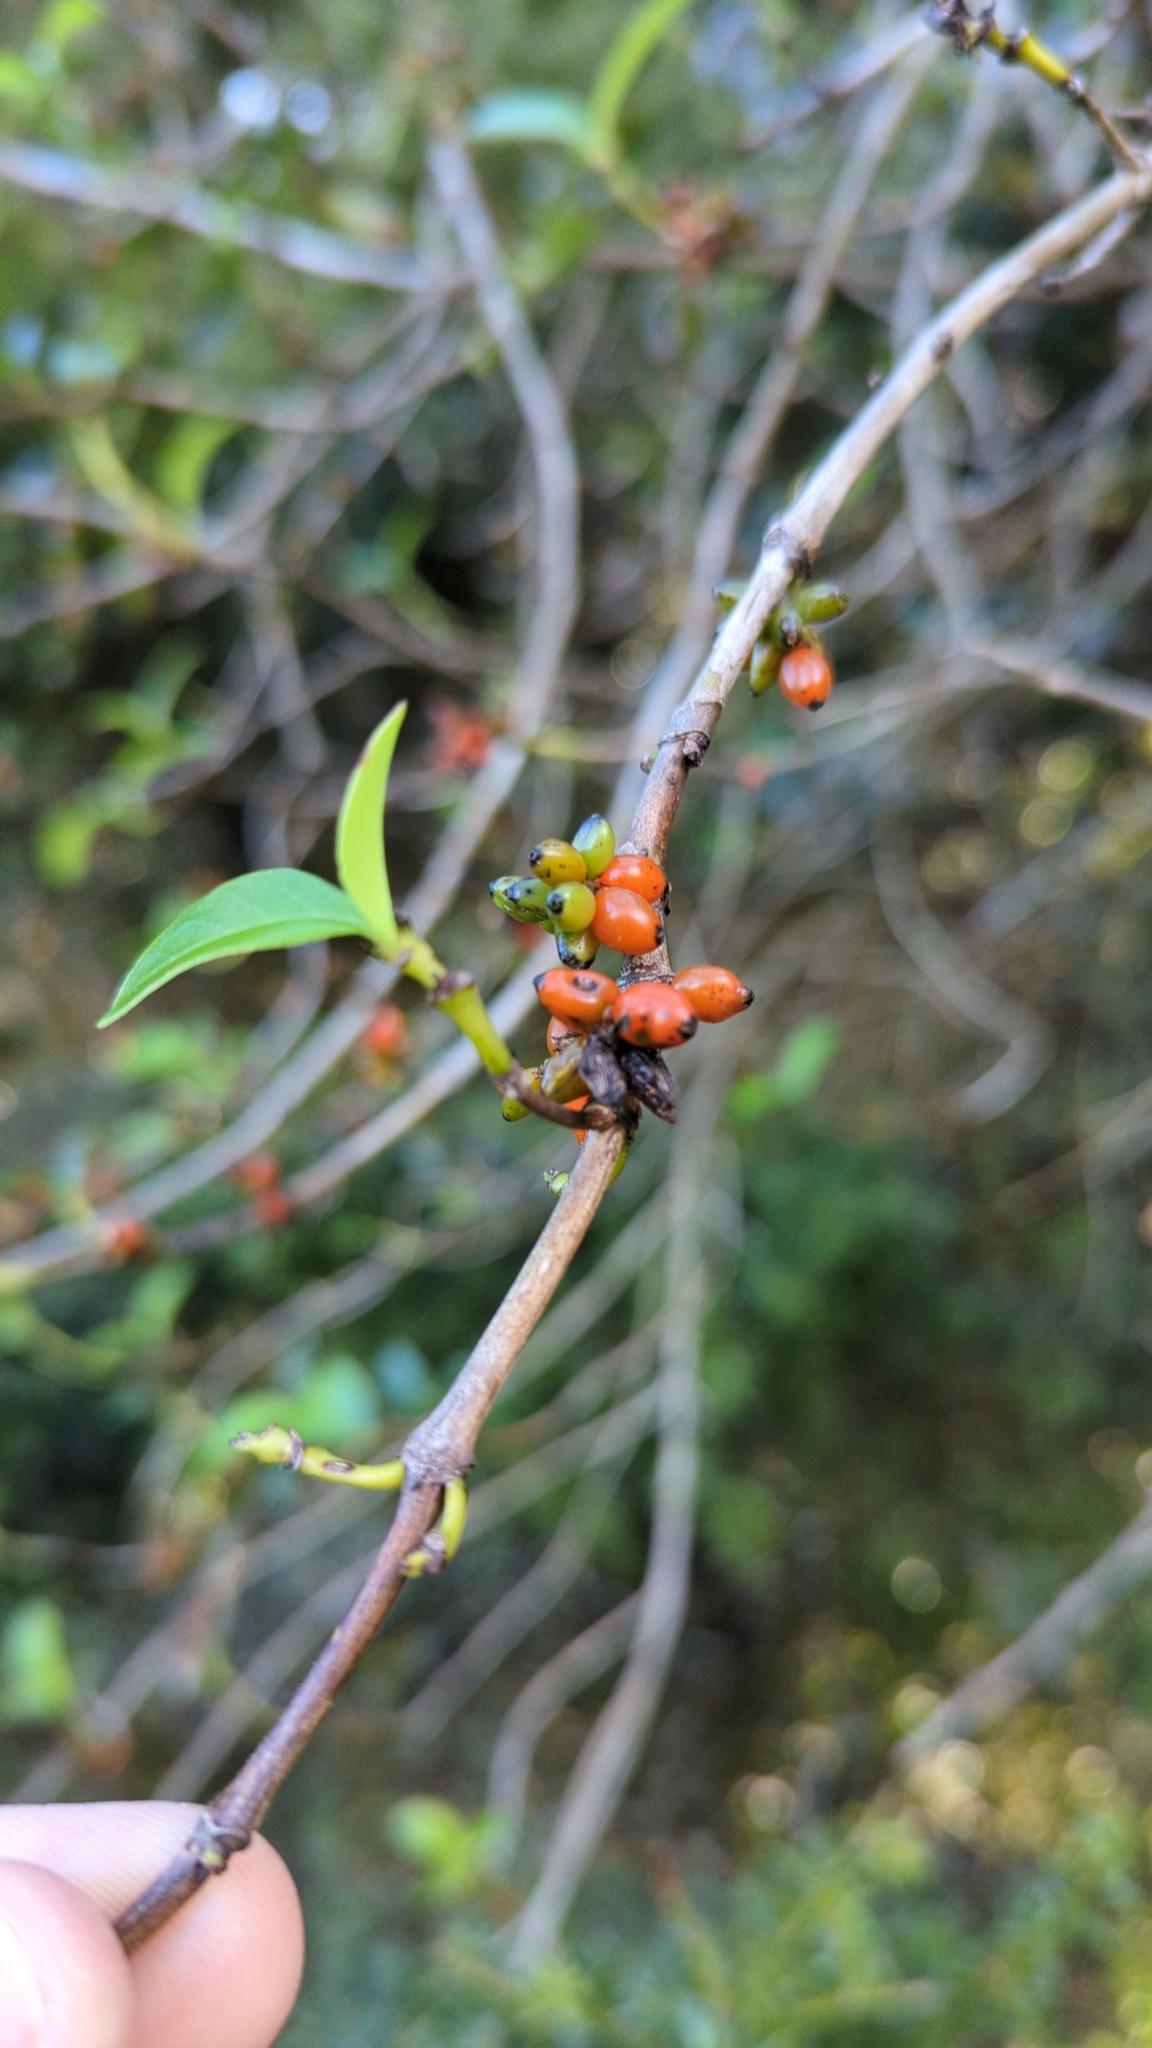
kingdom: Plantae
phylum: Tracheophyta
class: Magnoliopsida
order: Gentianales
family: Rubiaceae
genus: Coprosma
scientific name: Coprosma robusta
